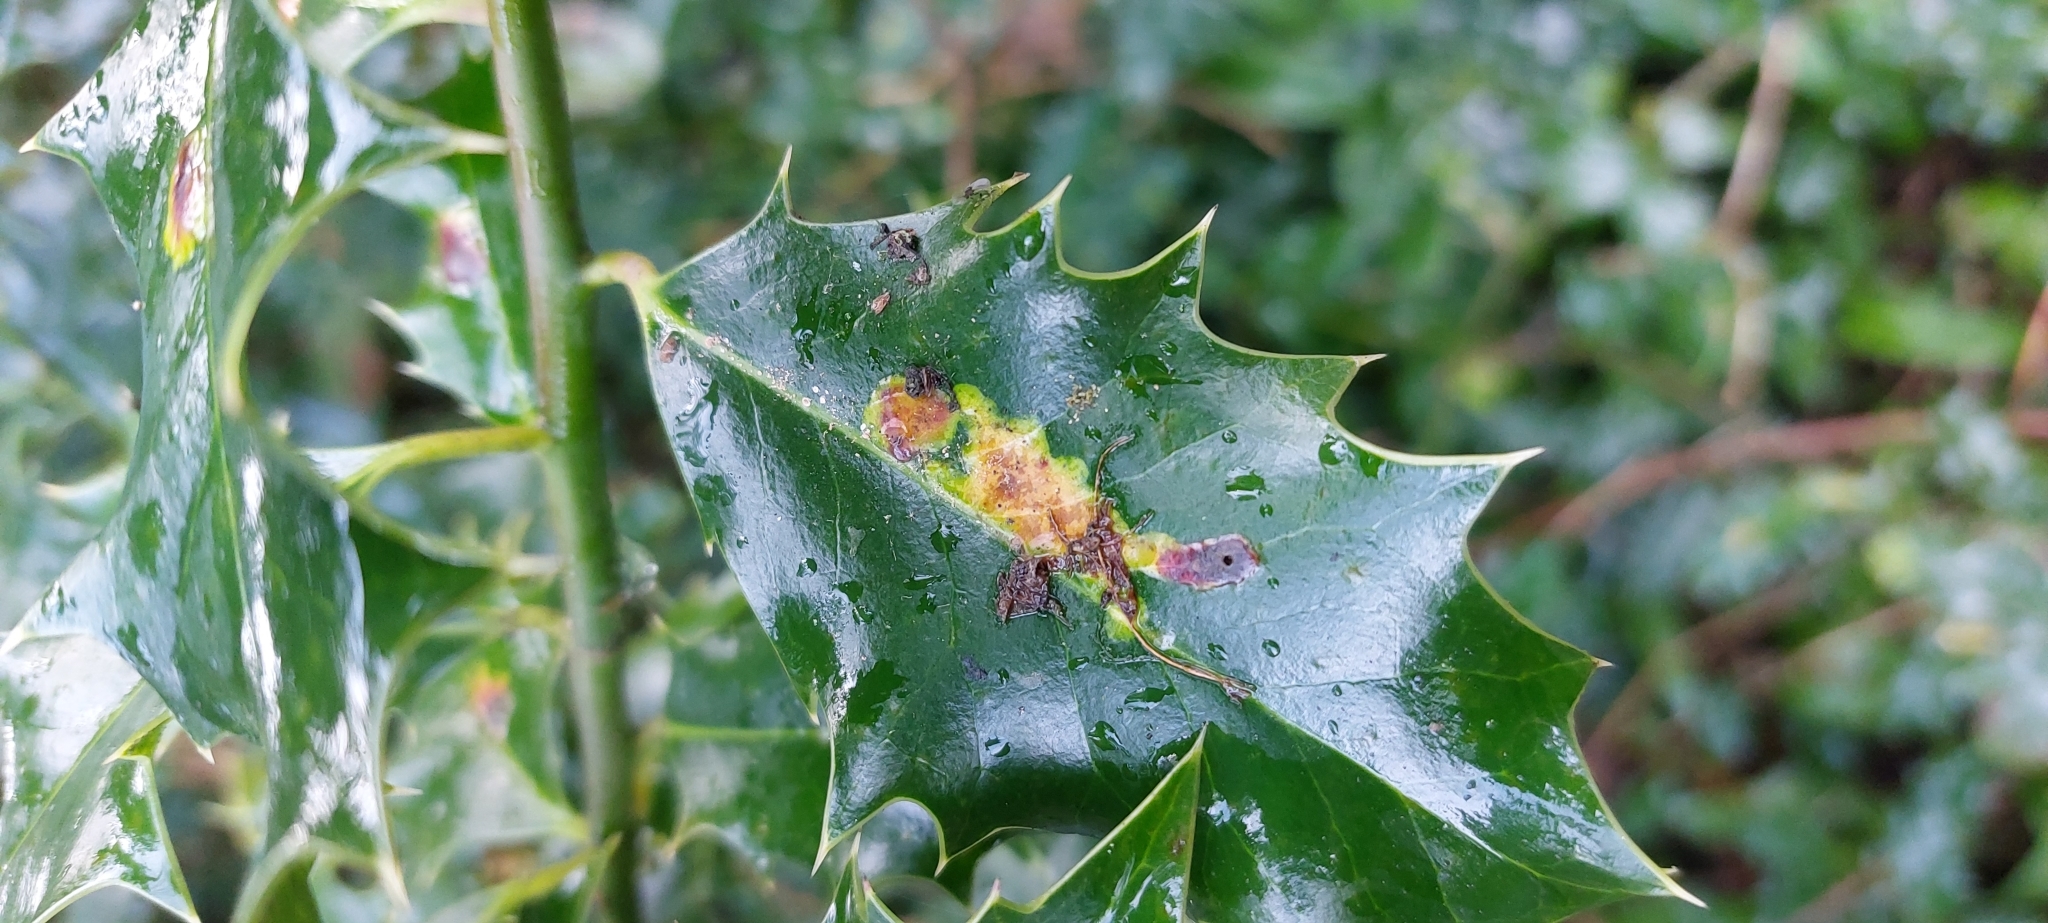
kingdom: Animalia
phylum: Arthropoda
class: Insecta
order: Diptera
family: Agromyzidae
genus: Phytomyza
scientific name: Phytomyza ilicis
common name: Holly leafminer
